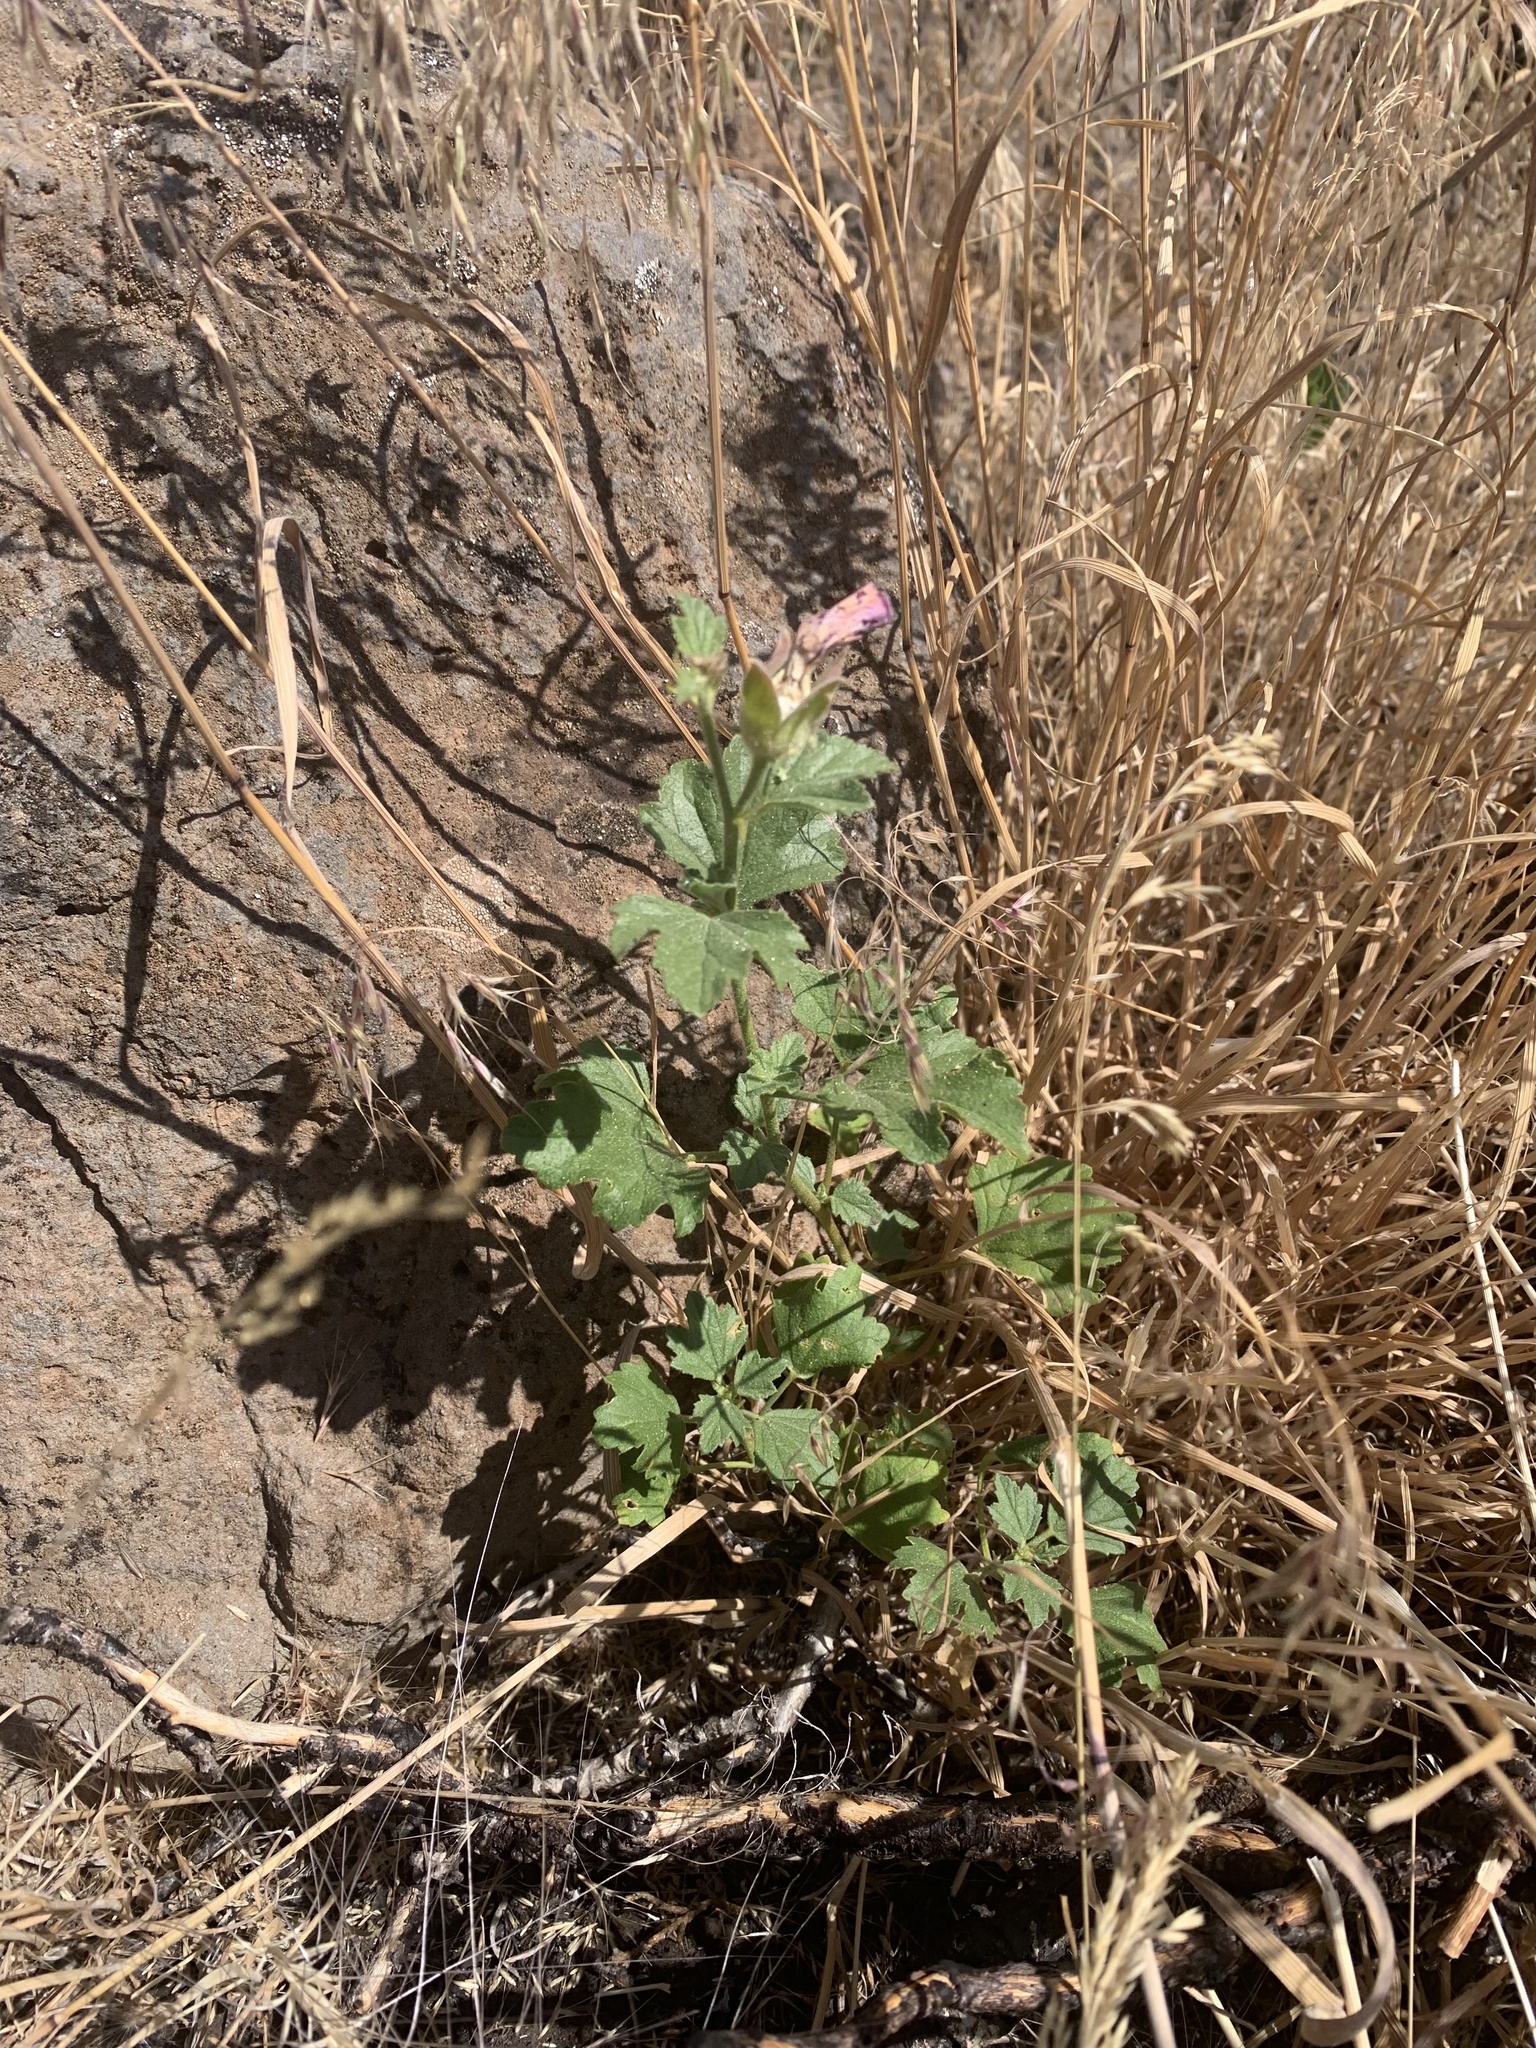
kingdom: Plantae
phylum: Tracheophyta
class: Magnoliopsida
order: Malvales
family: Malvaceae
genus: Iliamna
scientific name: Iliamna bakeri
